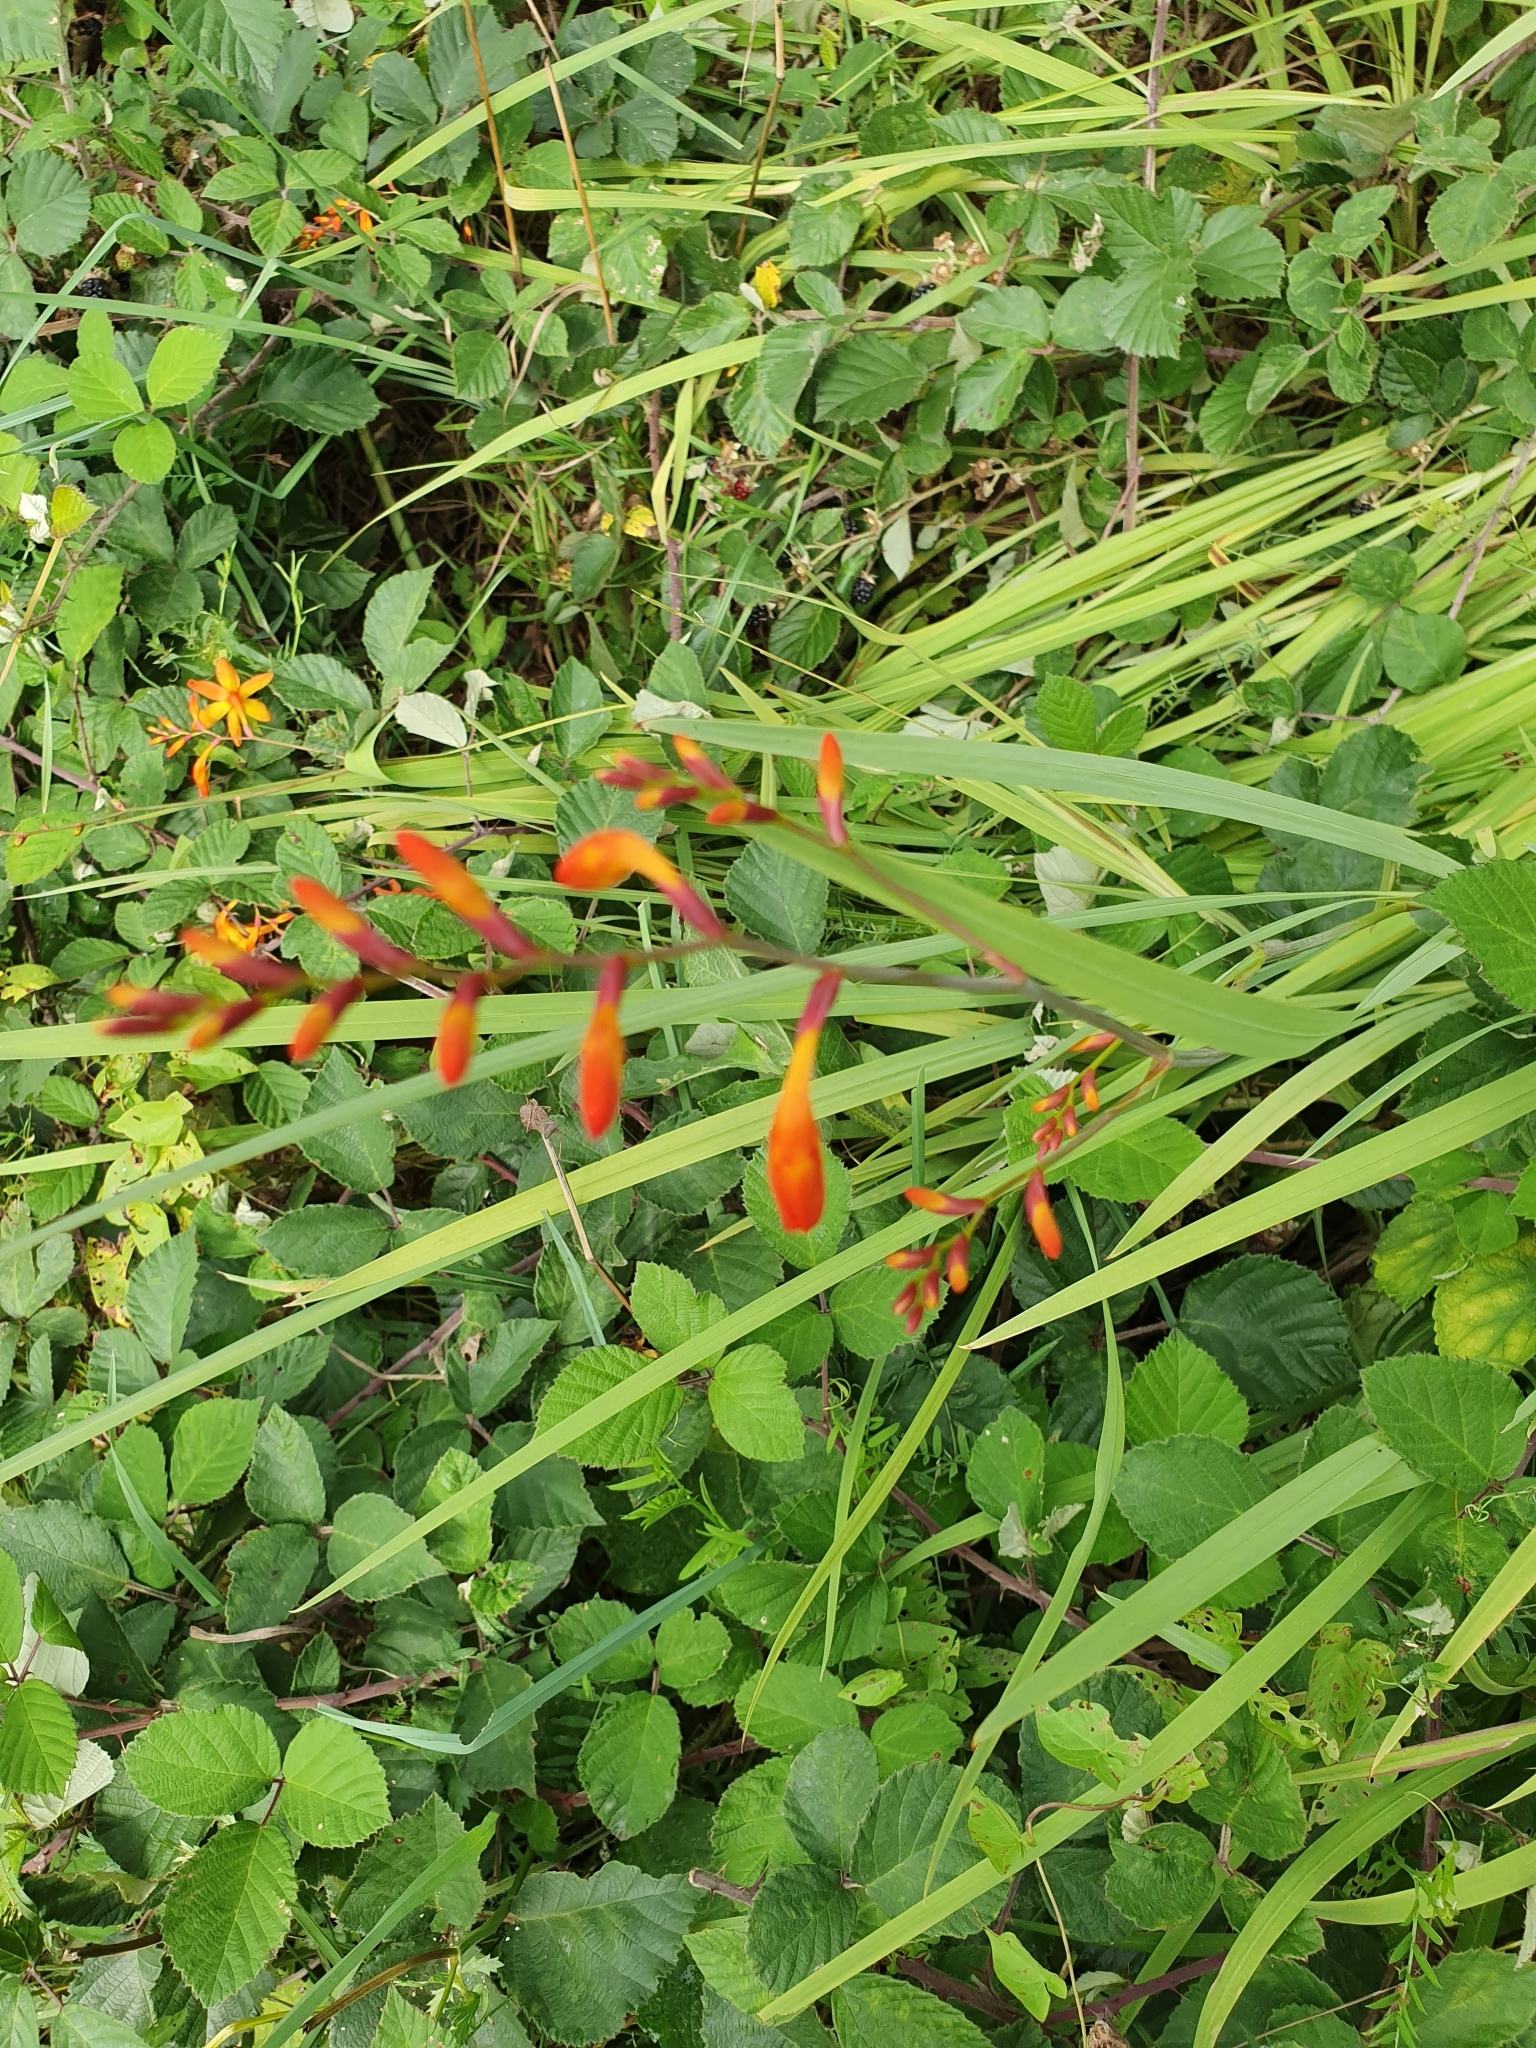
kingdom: Plantae
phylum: Tracheophyta
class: Liliopsida
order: Asparagales
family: Iridaceae
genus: Crocosmia
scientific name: Crocosmia crocosmiiflora
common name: Montbretia
